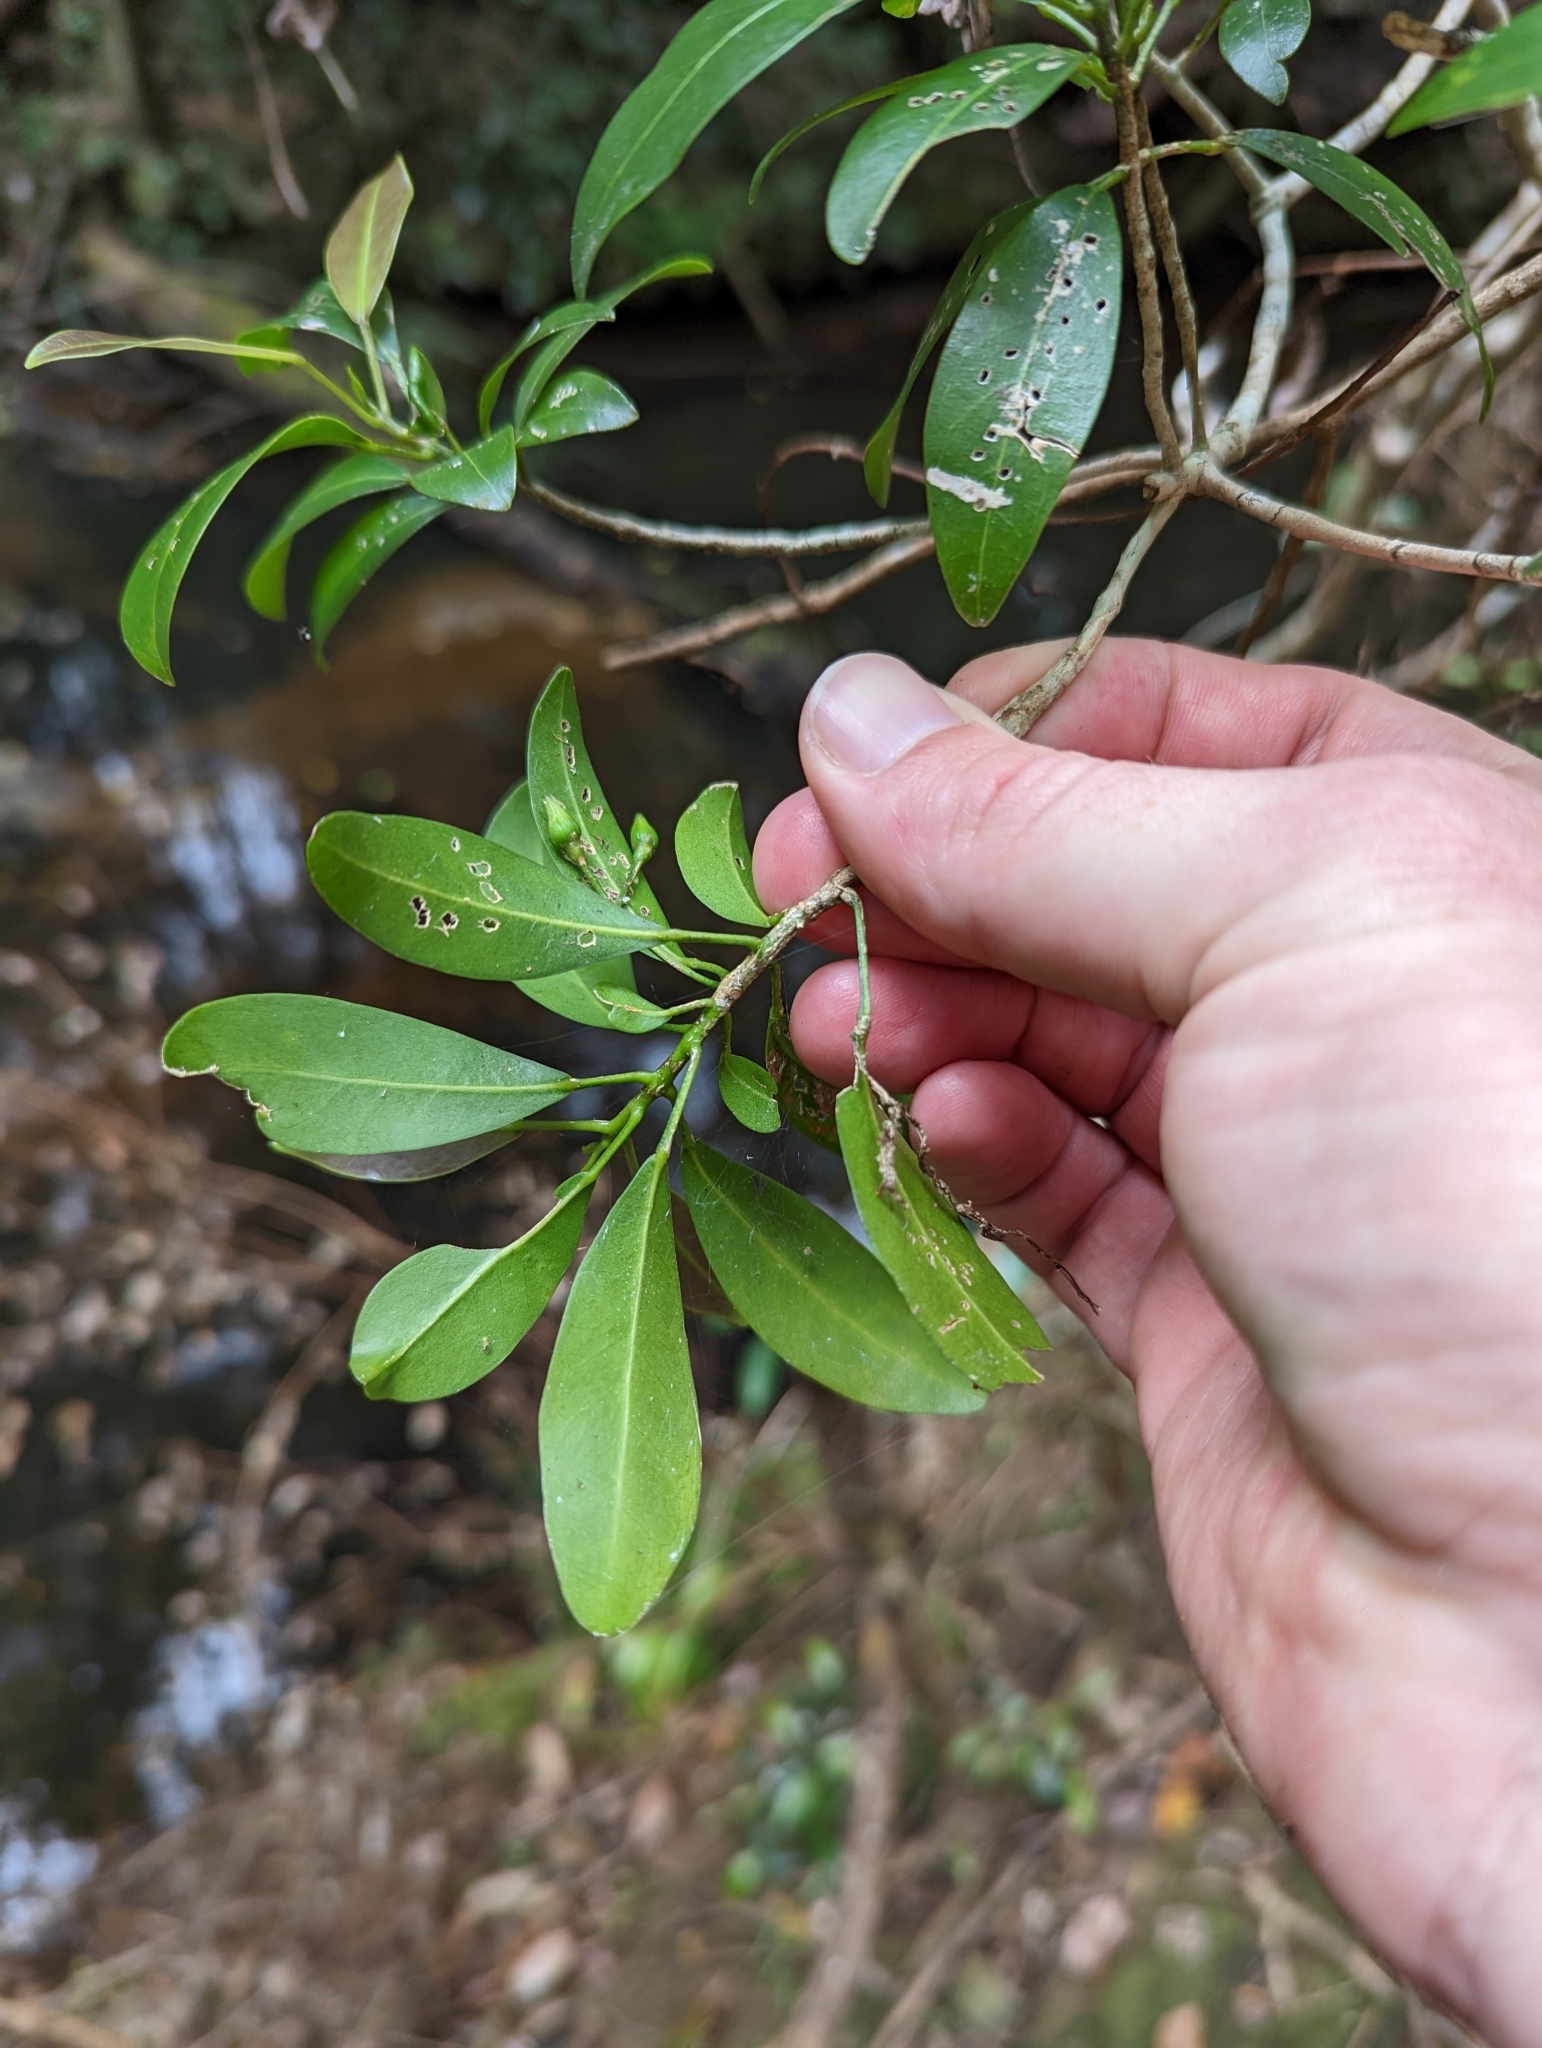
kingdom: Plantae
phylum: Tracheophyta
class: Magnoliopsida
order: Sapindales
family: Rutaceae
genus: Acronychia
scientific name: Acronychia laevis
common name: Hard aspen
